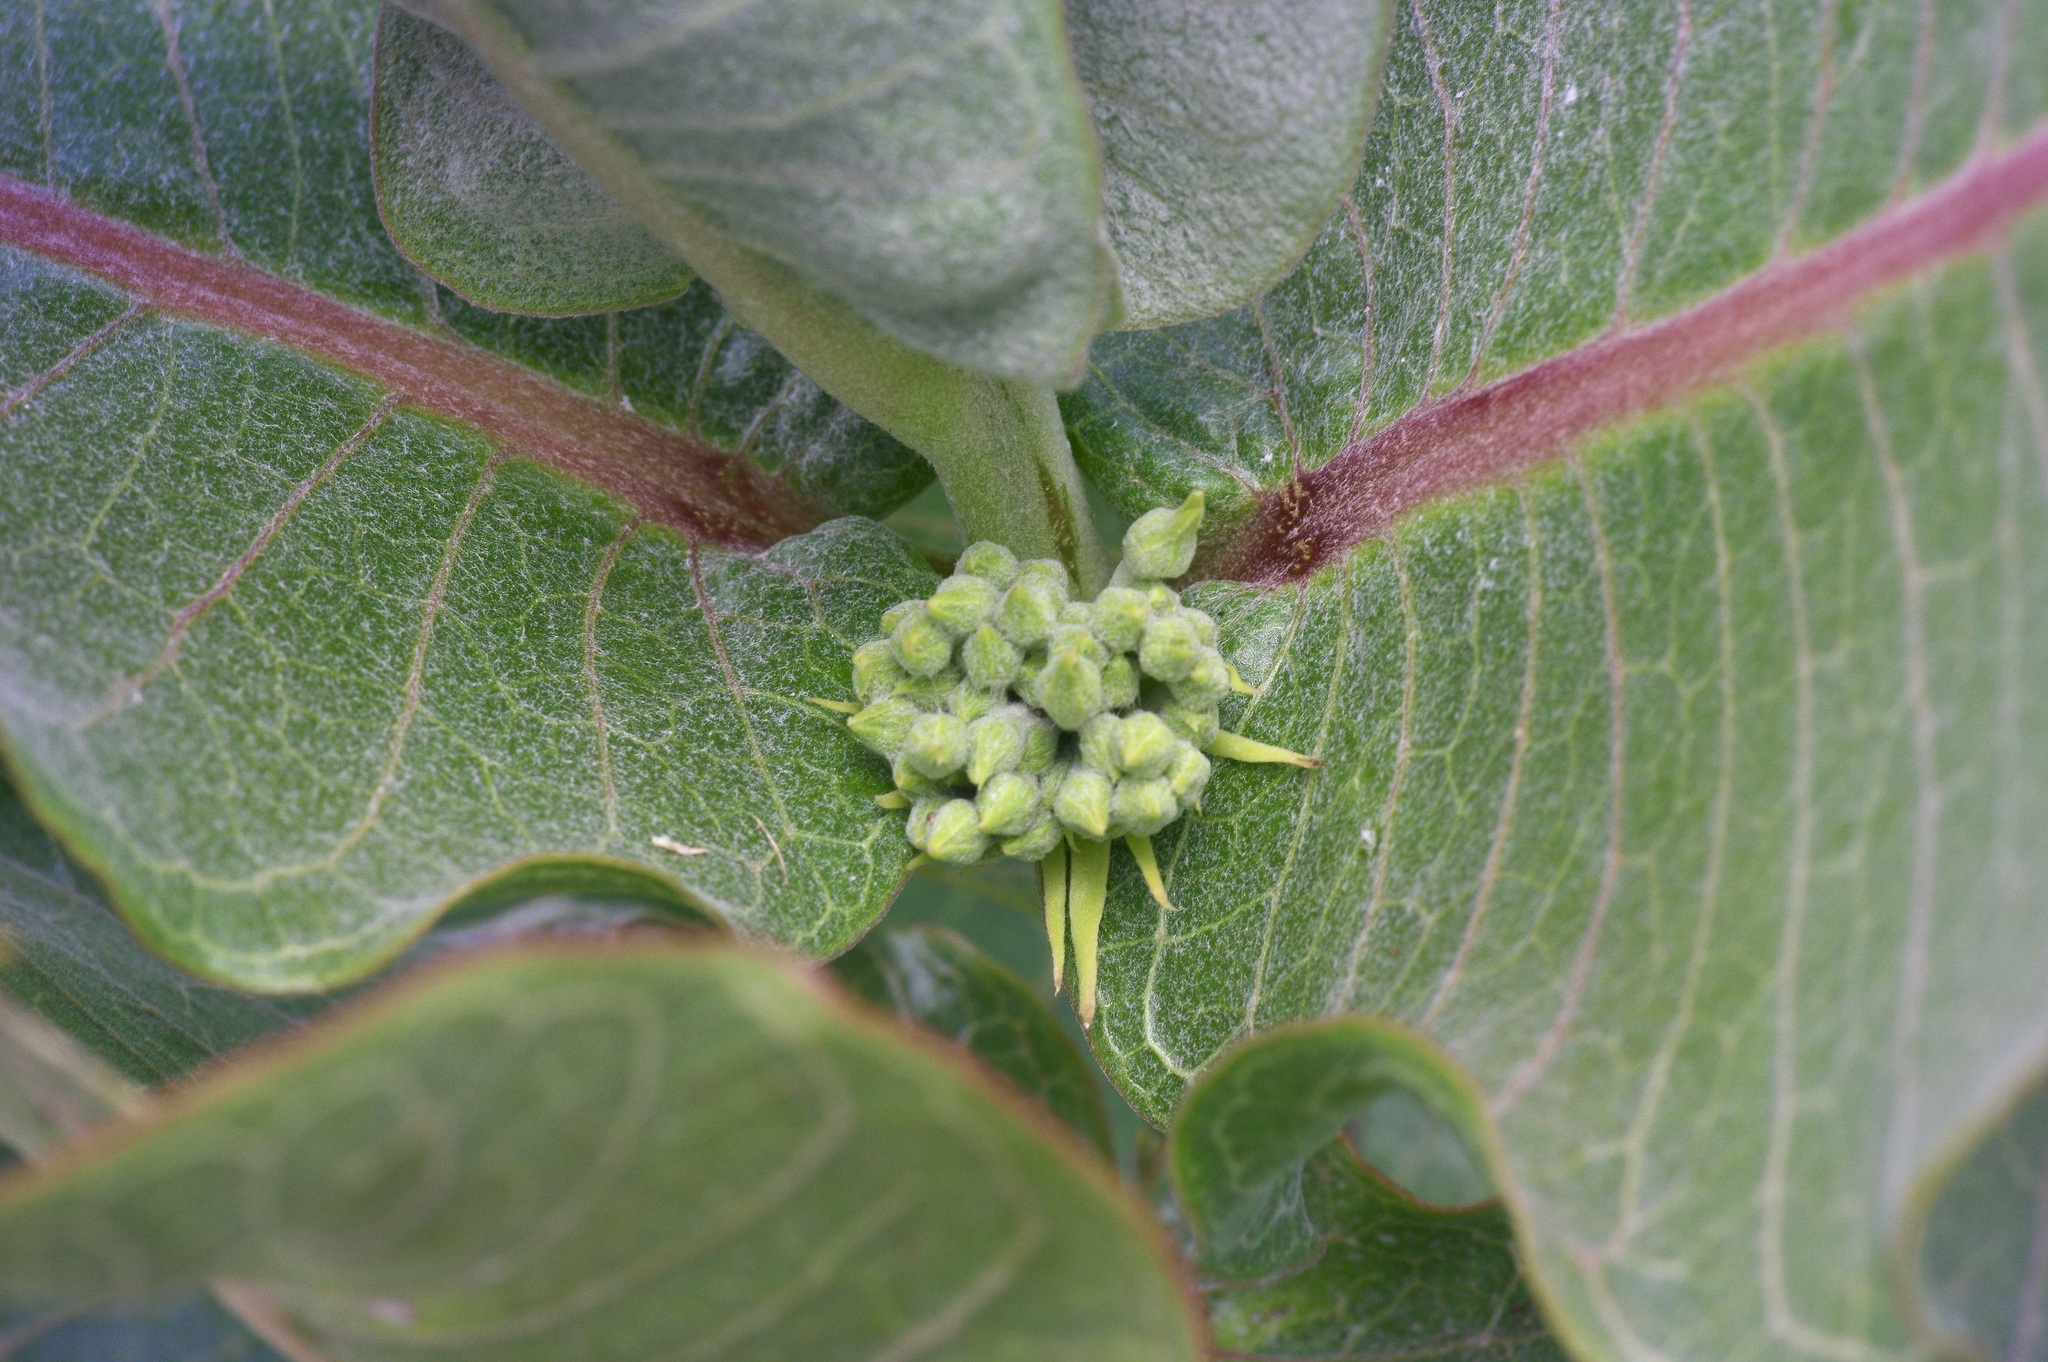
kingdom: Plantae
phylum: Tracheophyta
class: Magnoliopsida
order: Gentianales
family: Apocynaceae
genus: Asclepias
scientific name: Asclepias latifolia
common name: Broadleaf milkweed
